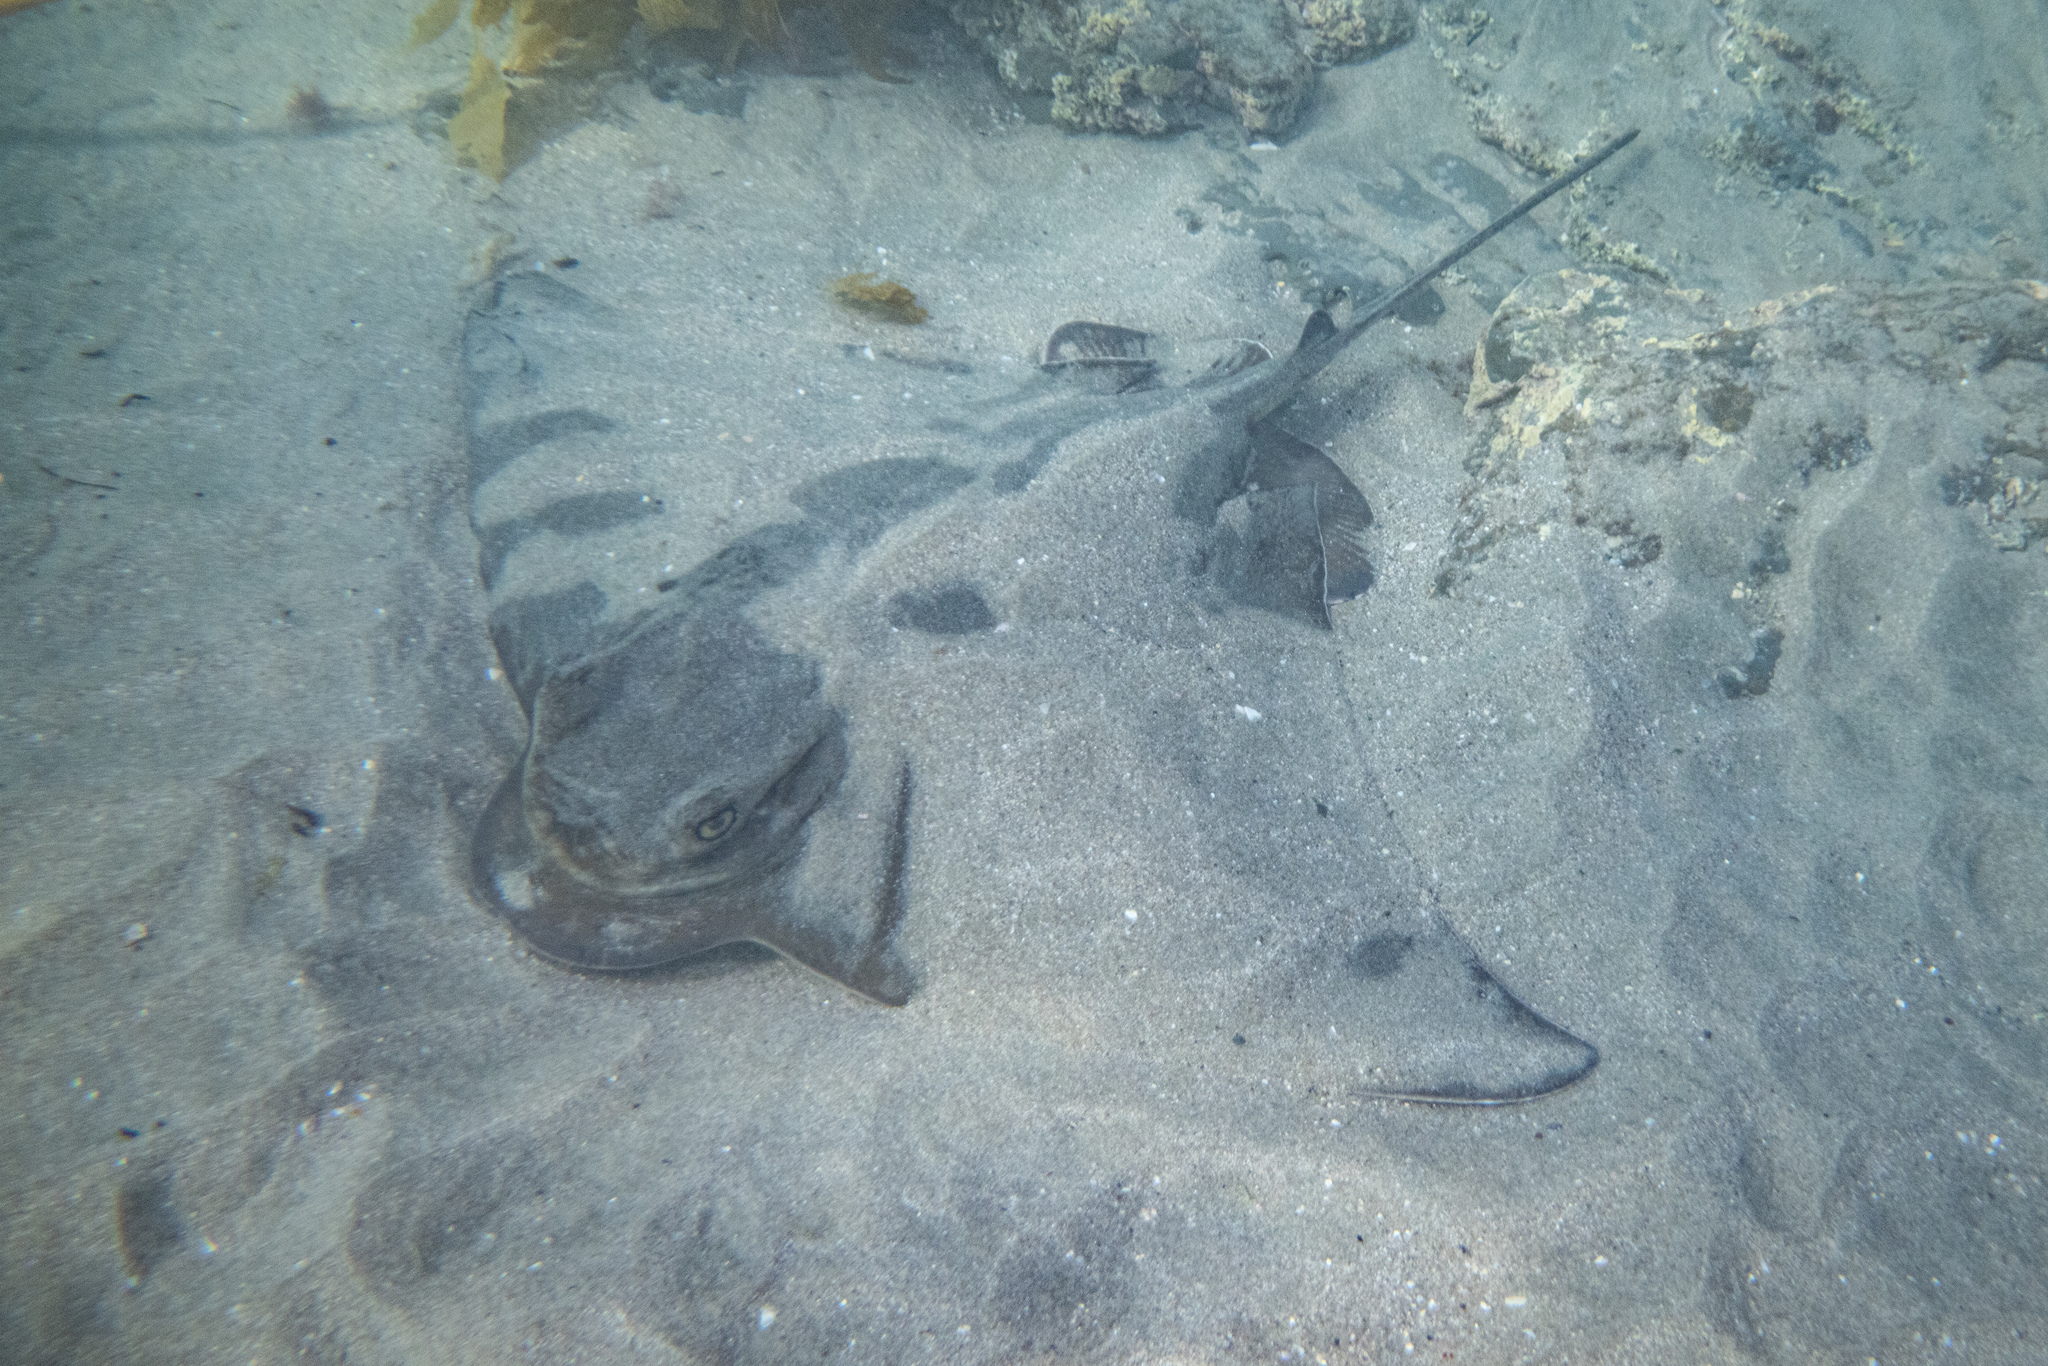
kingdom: Animalia
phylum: Chordata
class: Elasmobranchii
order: Myliobatiformes
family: Myliobatidae
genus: Myliobatis
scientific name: Myliobatis tenuicaudatus
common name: Eagle ray
